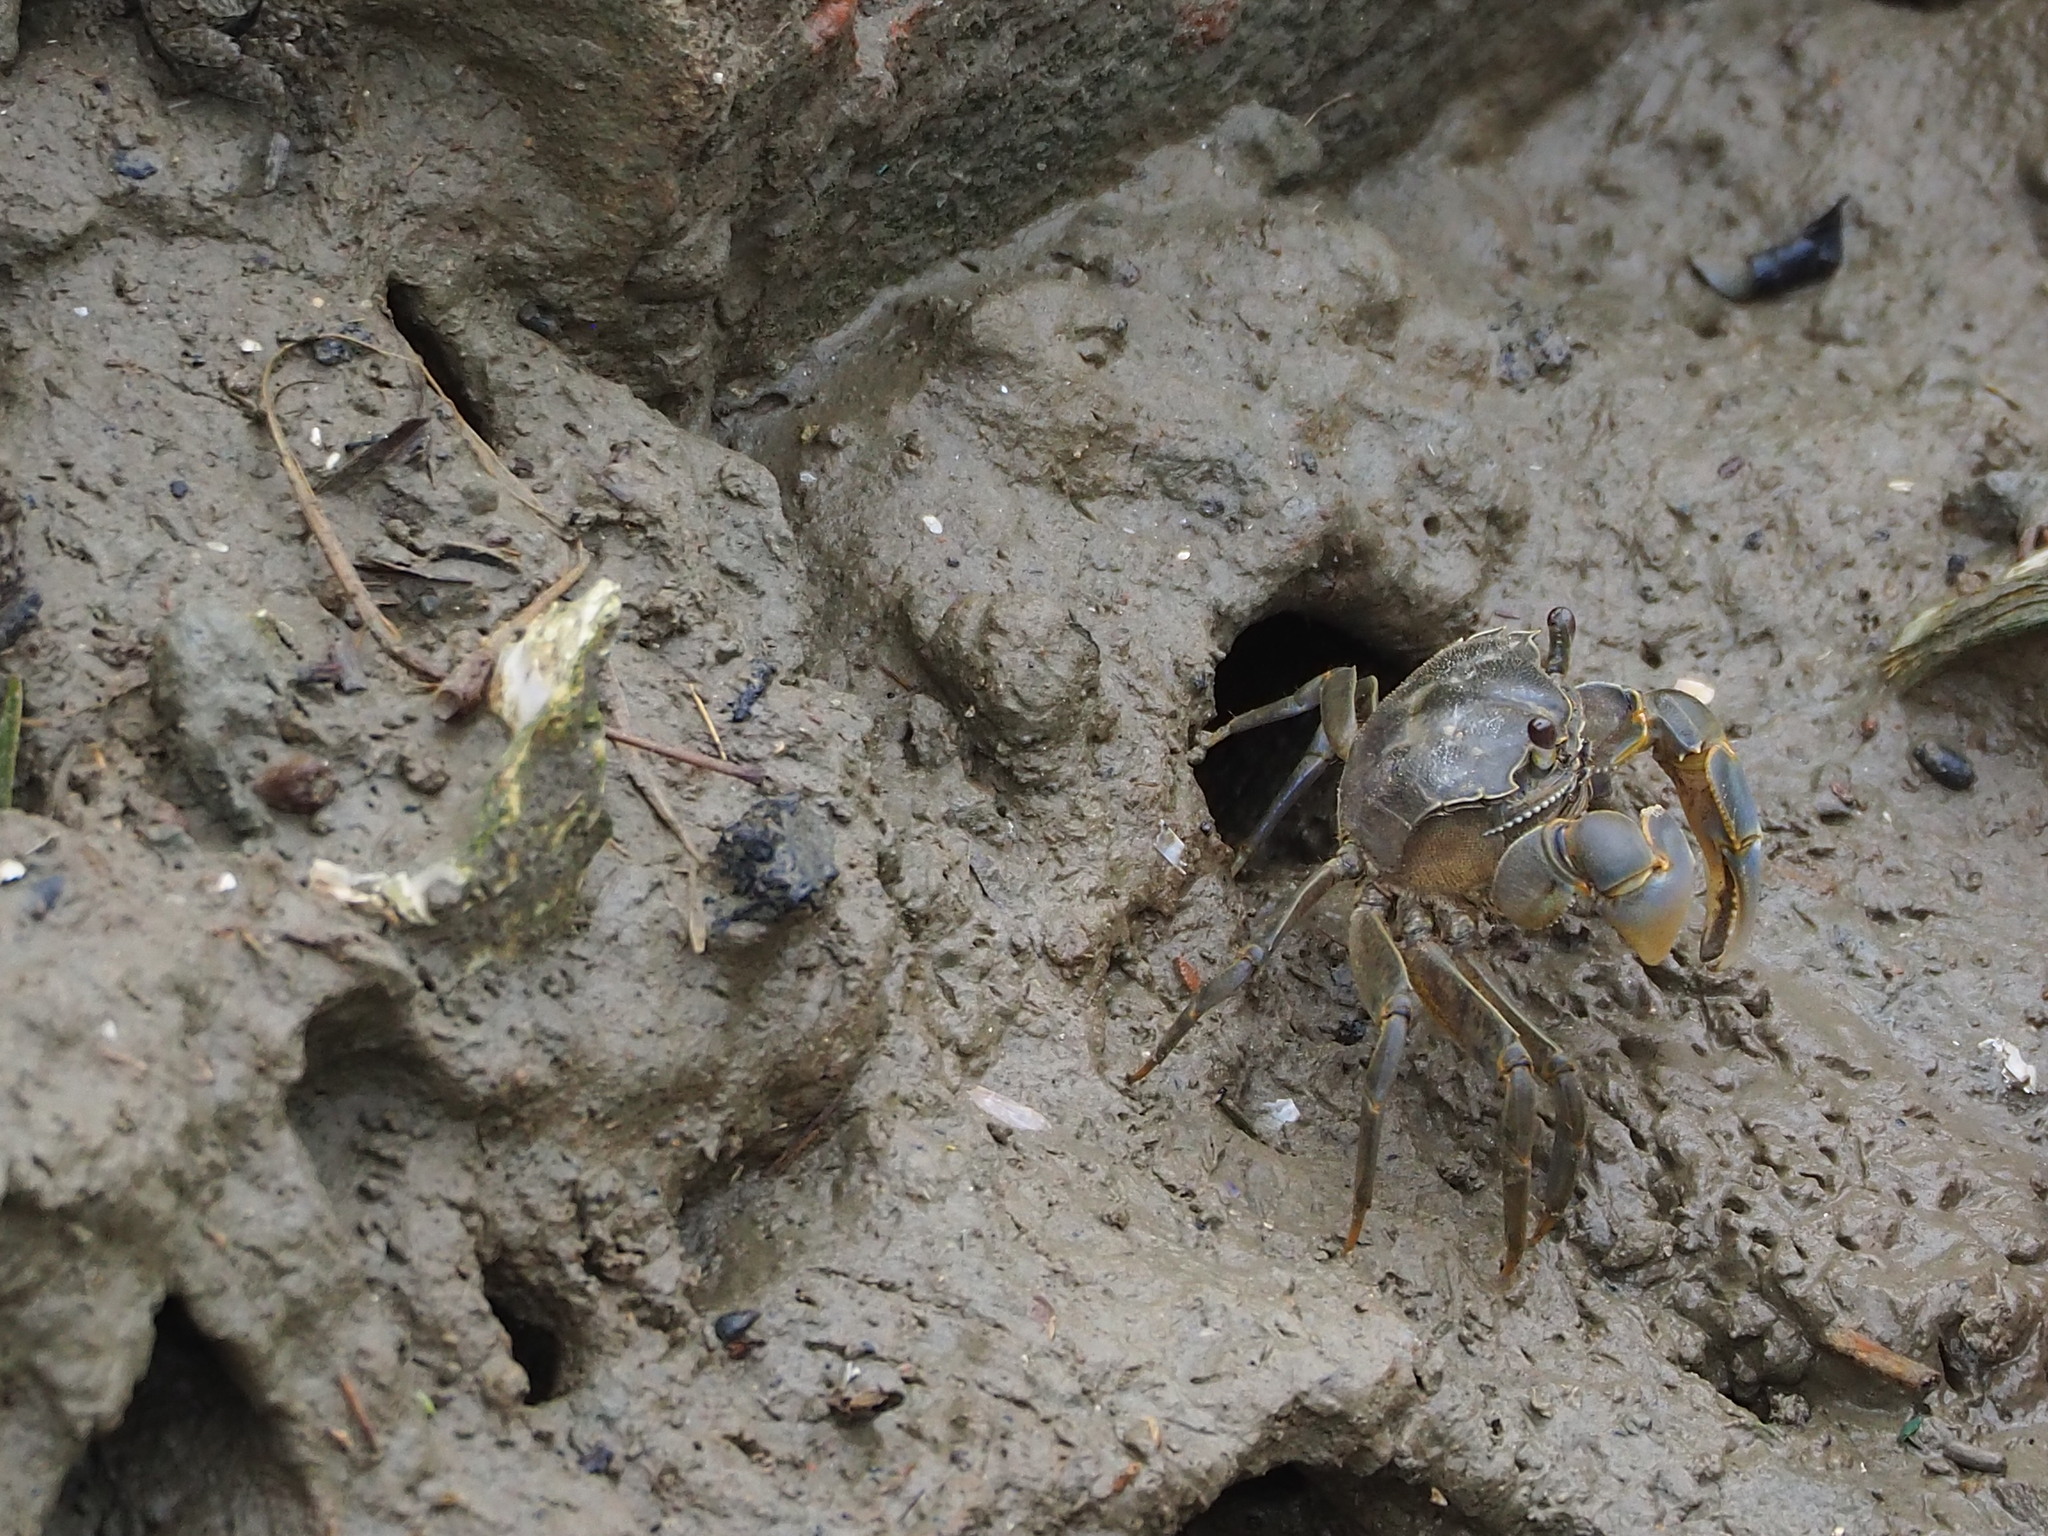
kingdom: Animalia
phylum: Arthropoda
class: Malacostraca
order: Decapoda
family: Varunidae
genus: Helice
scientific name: Helice formosensis
